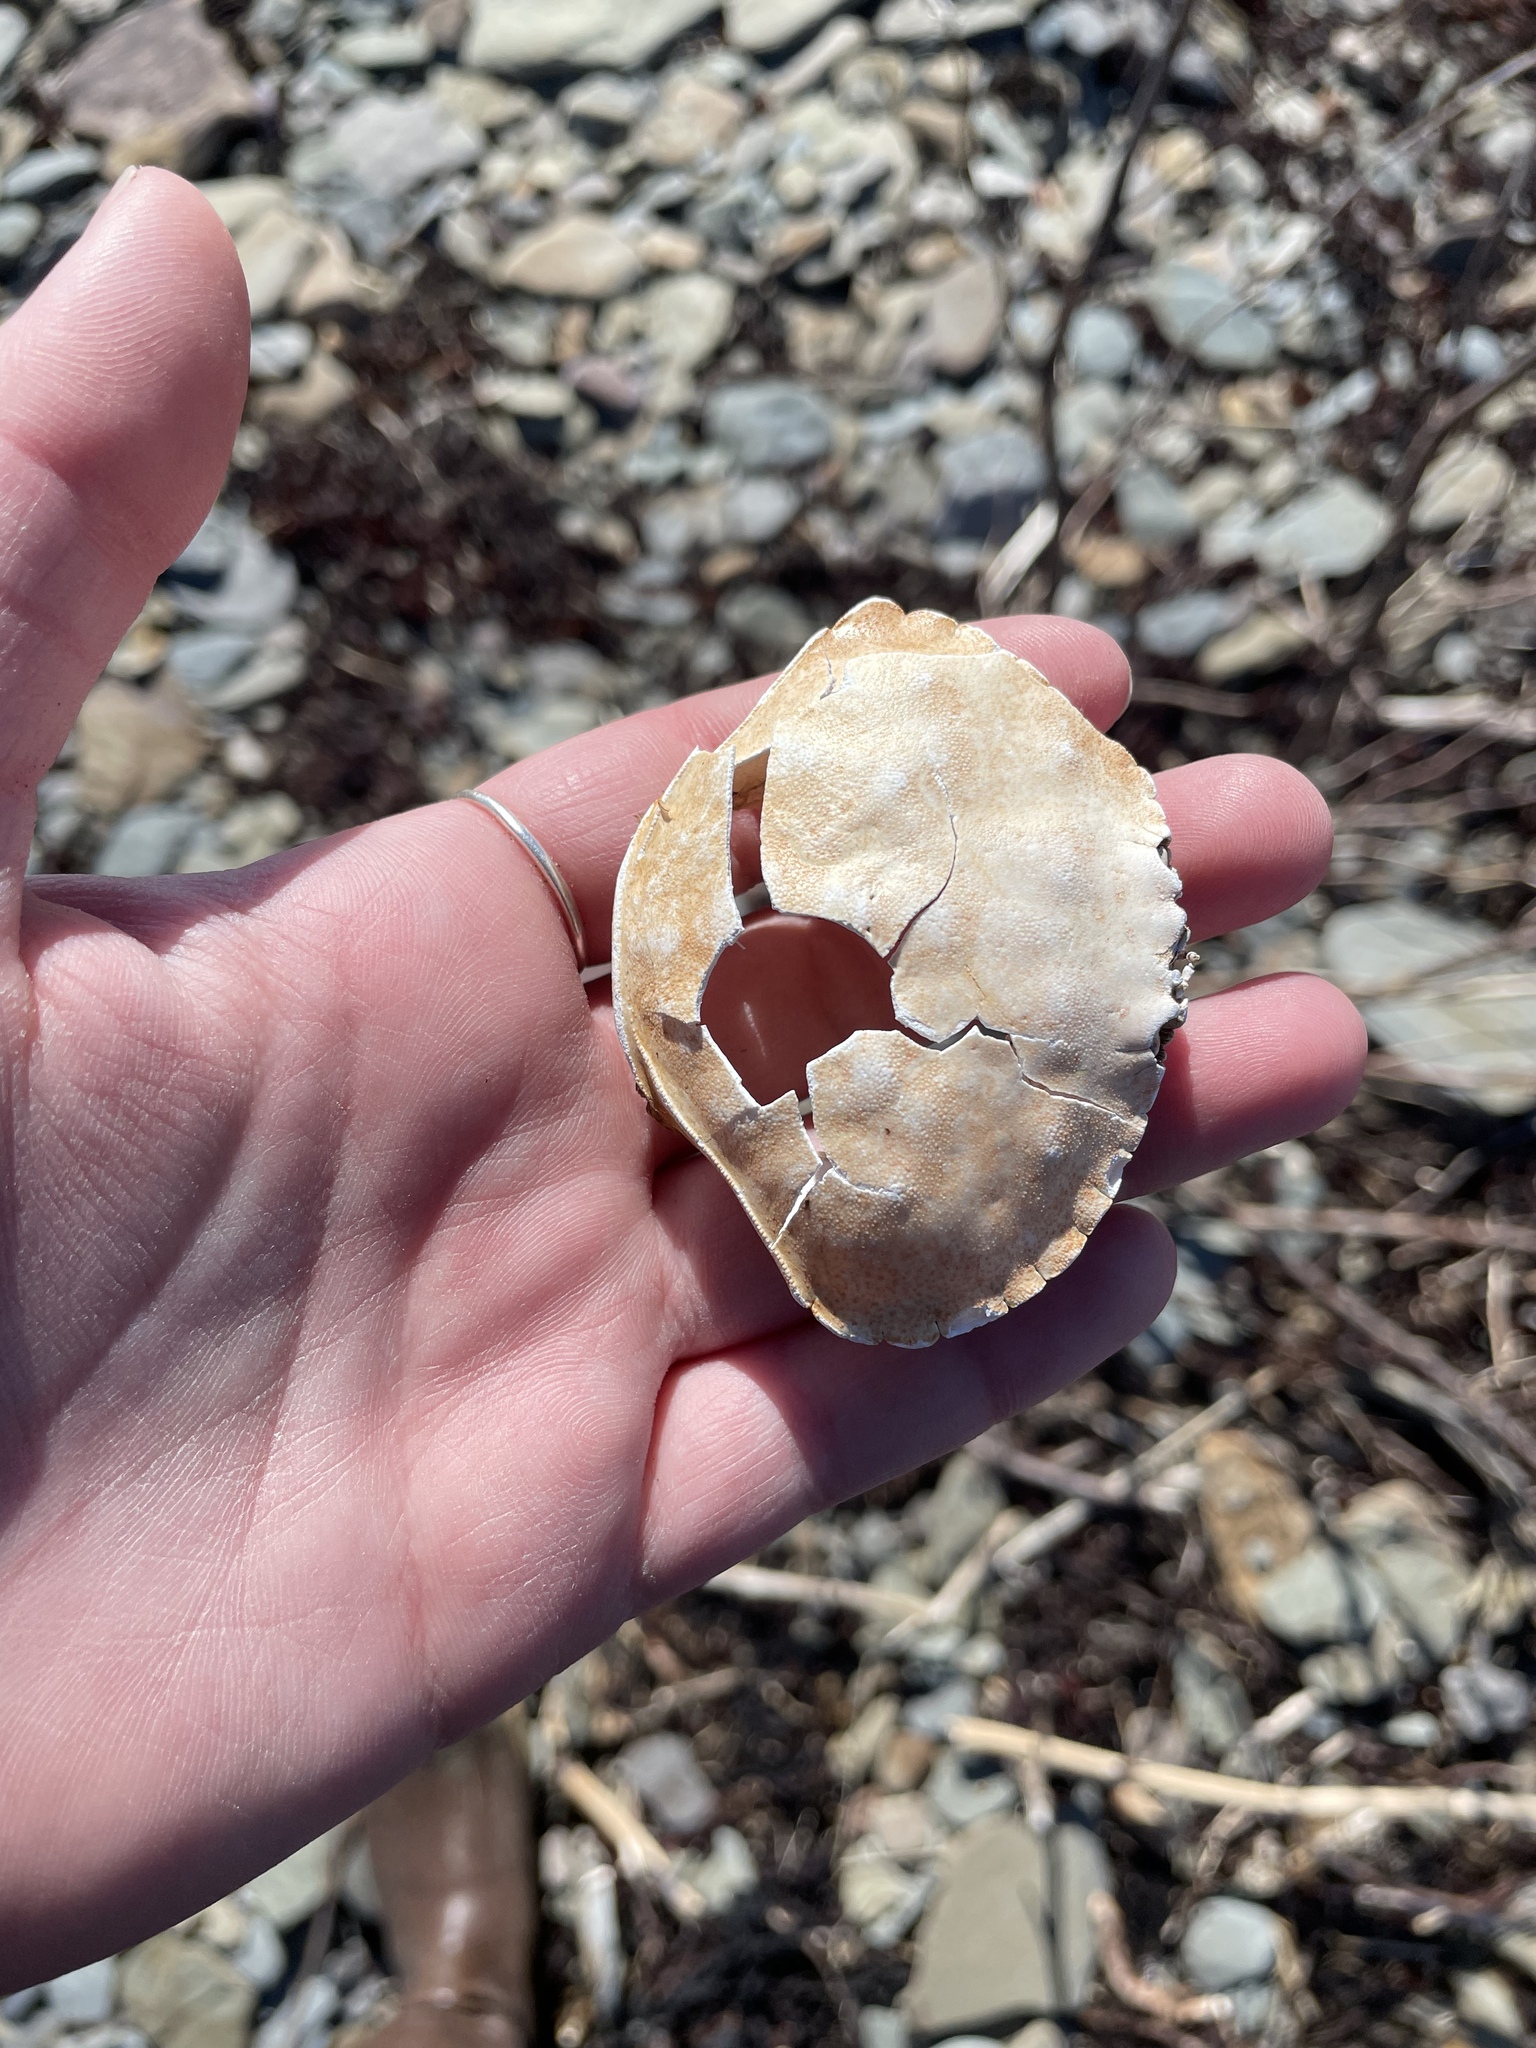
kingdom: Animalia
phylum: Arthropoda
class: Malacostraca
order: Decapoda
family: Cancridae
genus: Cancer
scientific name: Cancer irroratus
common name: Atlantic rock crab
